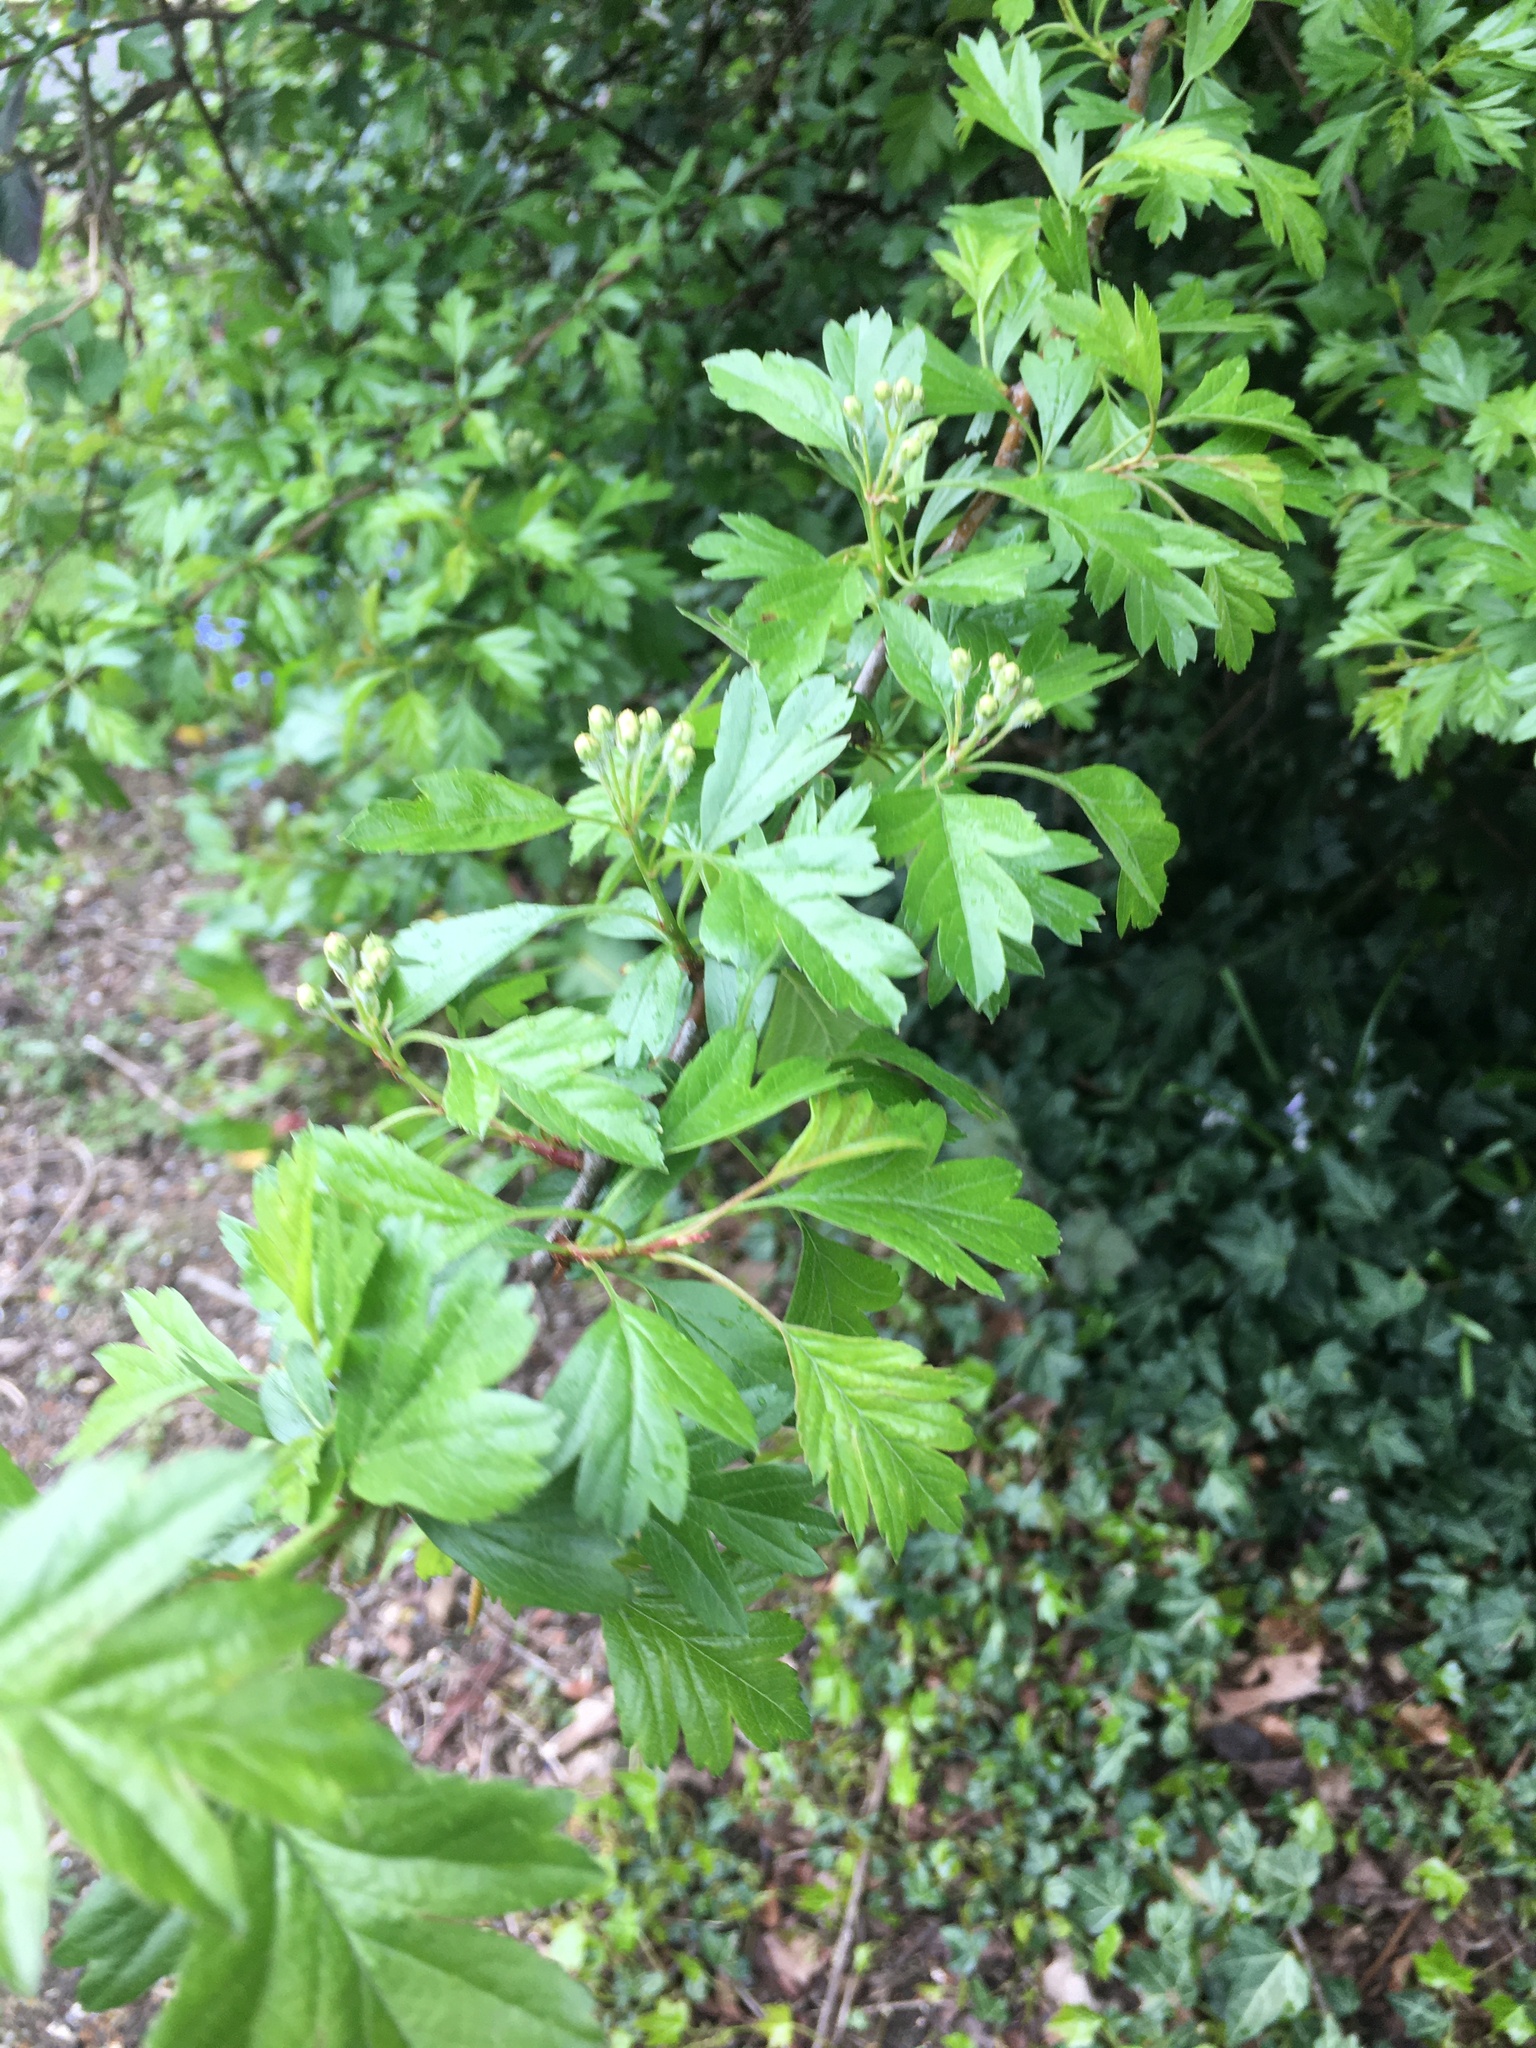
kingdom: Plantae
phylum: Tracheophyta
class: Magnoliopsida
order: Rosales
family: Rosaceae
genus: Crataegus
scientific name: Crataegus monogyna
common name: Hawthorn
